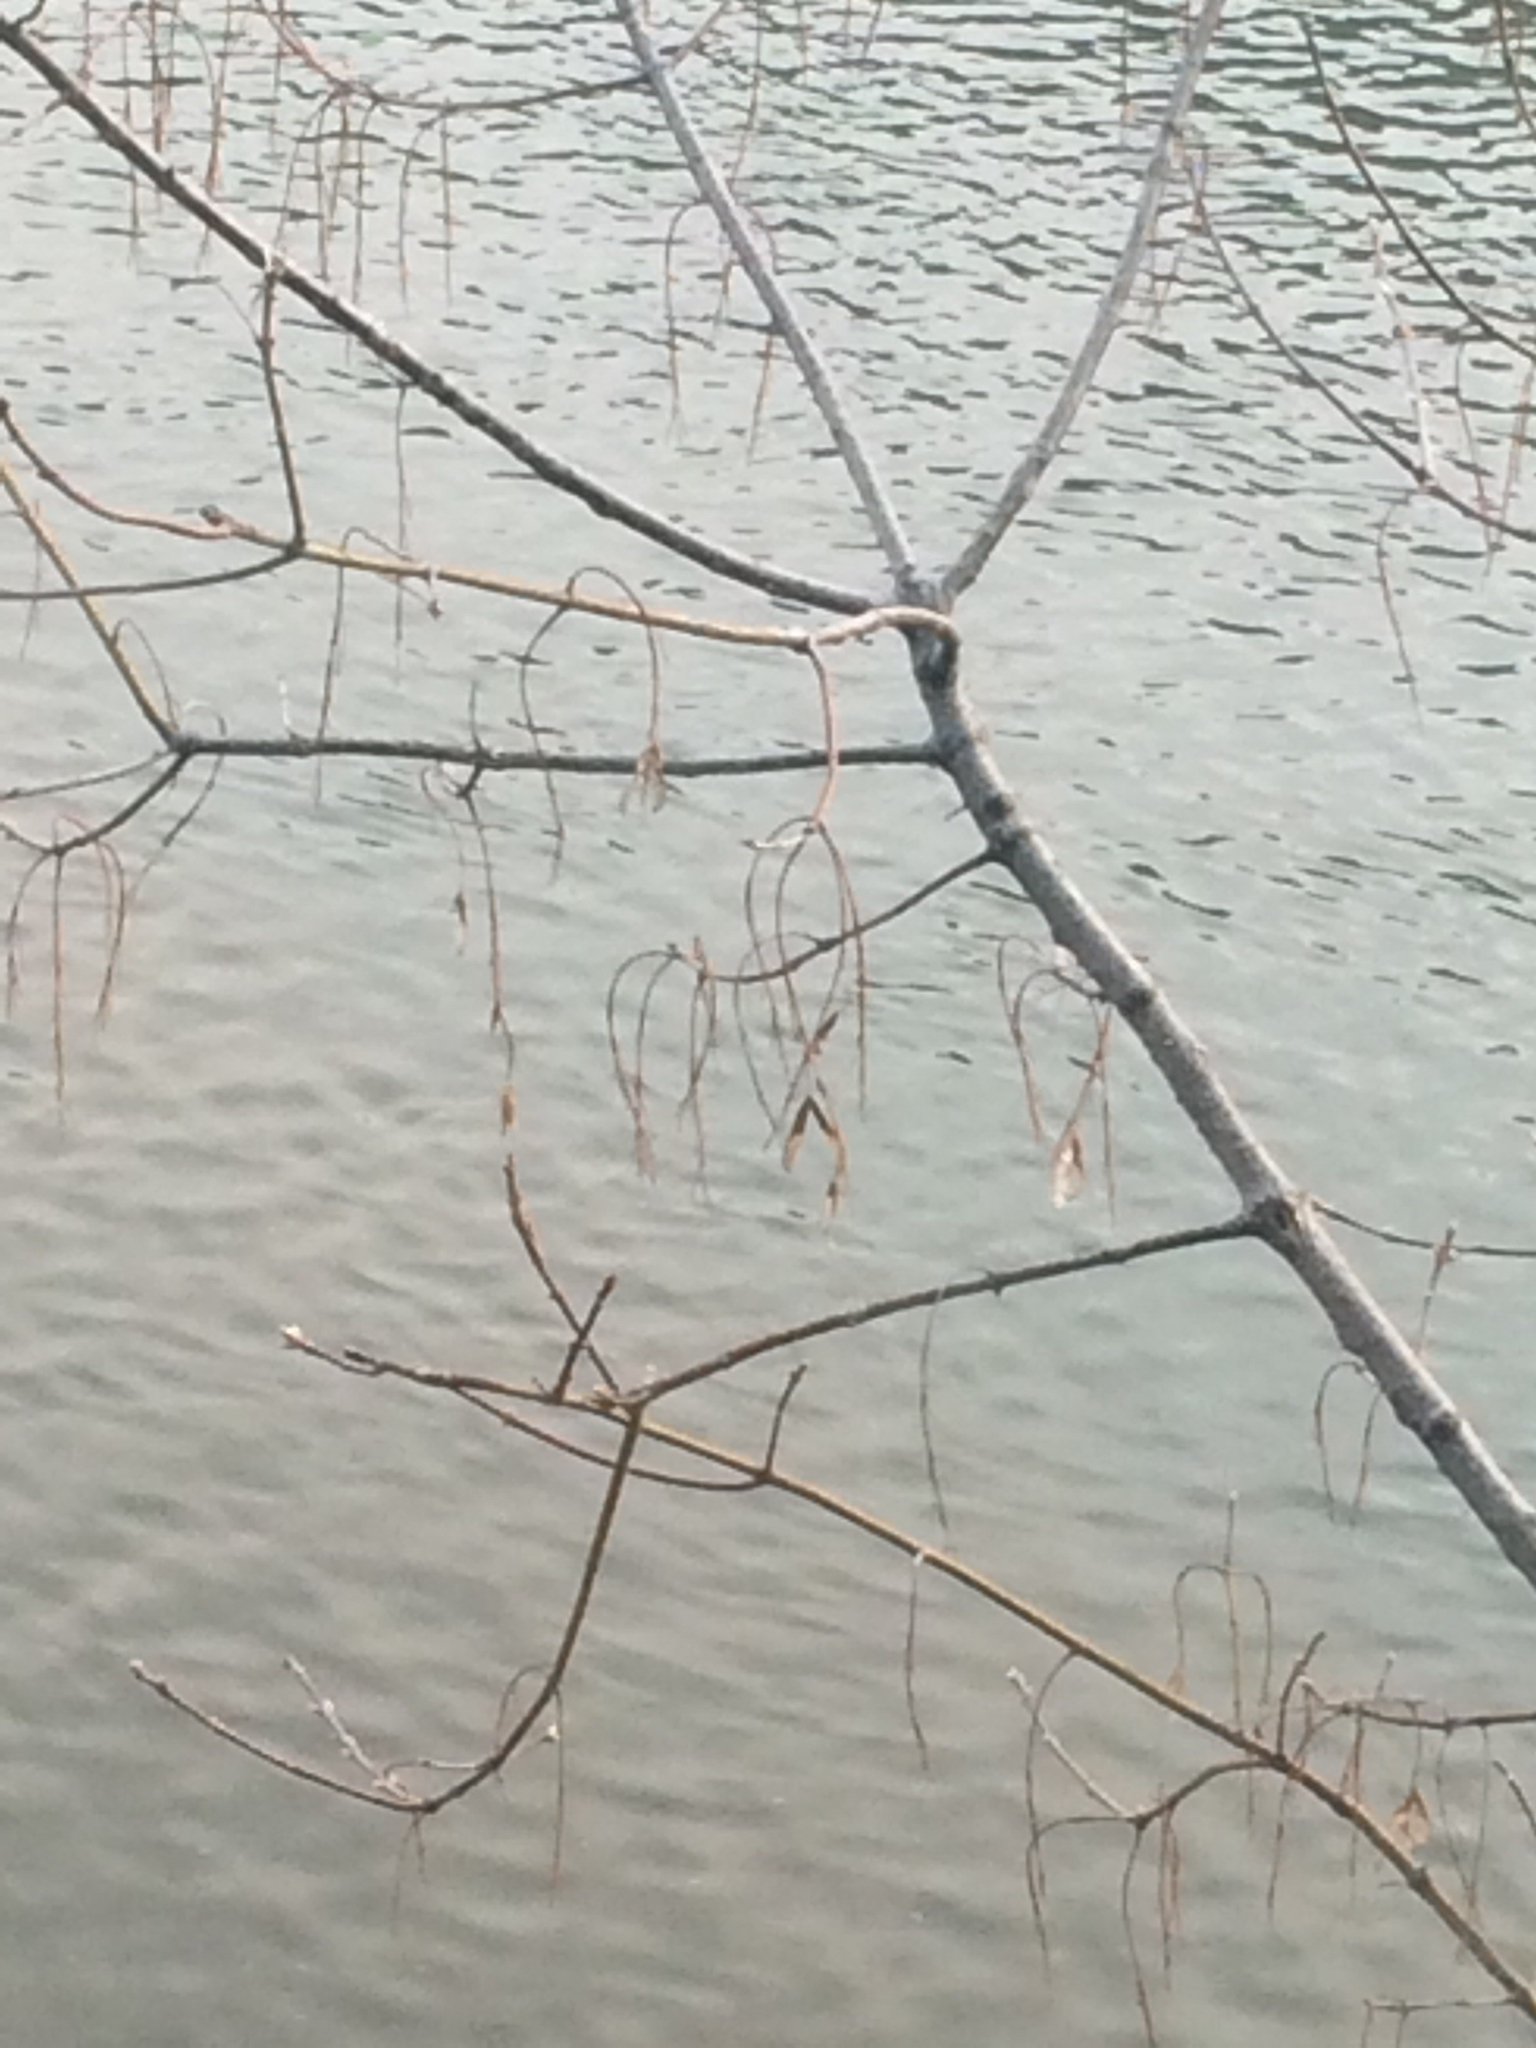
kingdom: Plantae
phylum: Tracheophyta
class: Magnoliopsida
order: Sapindales
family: Sapindaceae
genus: Acer
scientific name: Acer negundo
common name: Ashleaf maple
